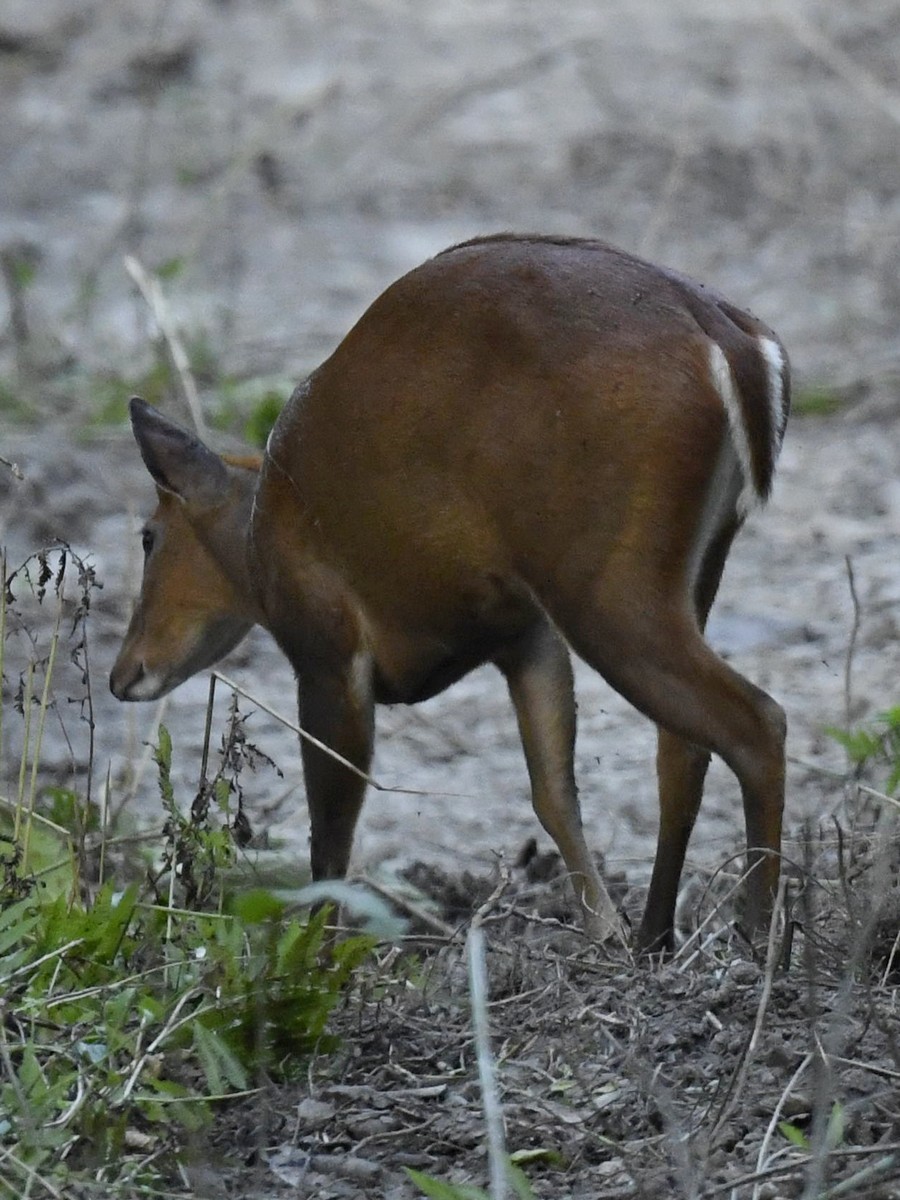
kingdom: Animalia
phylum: Chordata
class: Mammalia
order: Artiodactyla
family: Cervidae
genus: Muntiacus
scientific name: Muntiacus muntjak
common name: Indian muntjac
